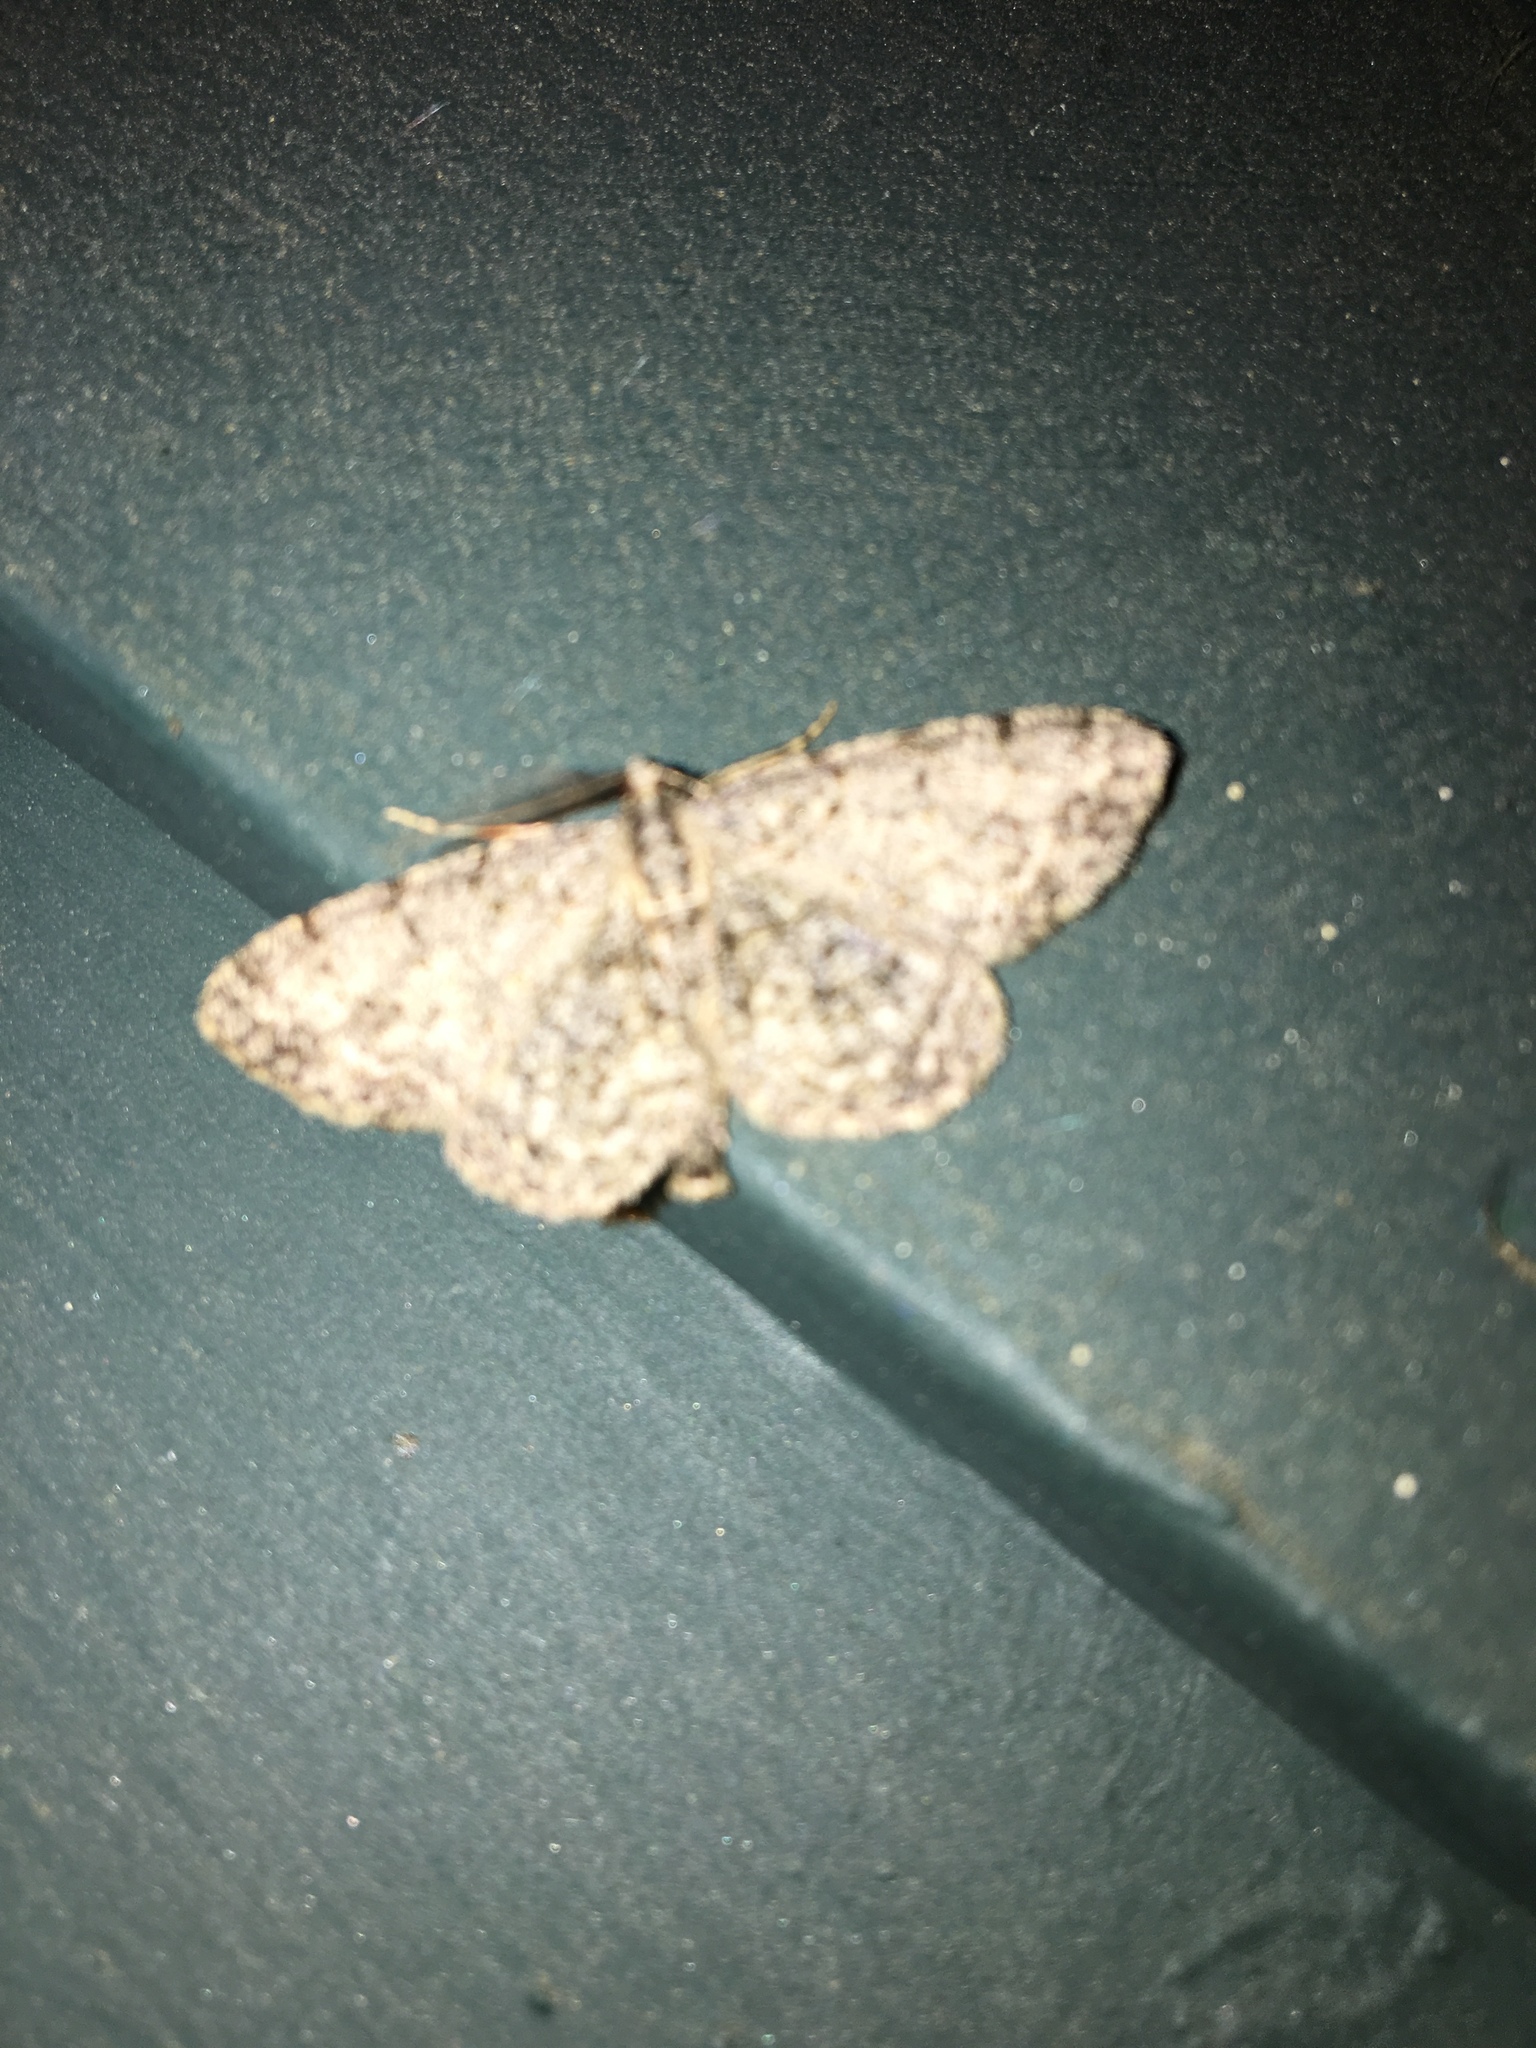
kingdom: Animalia
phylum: Arthropoda
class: Insecta
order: Lepidoptera
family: Geometridae
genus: Protoboarmia
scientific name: Protoboarmia porcelaria
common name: Porcelain gray
